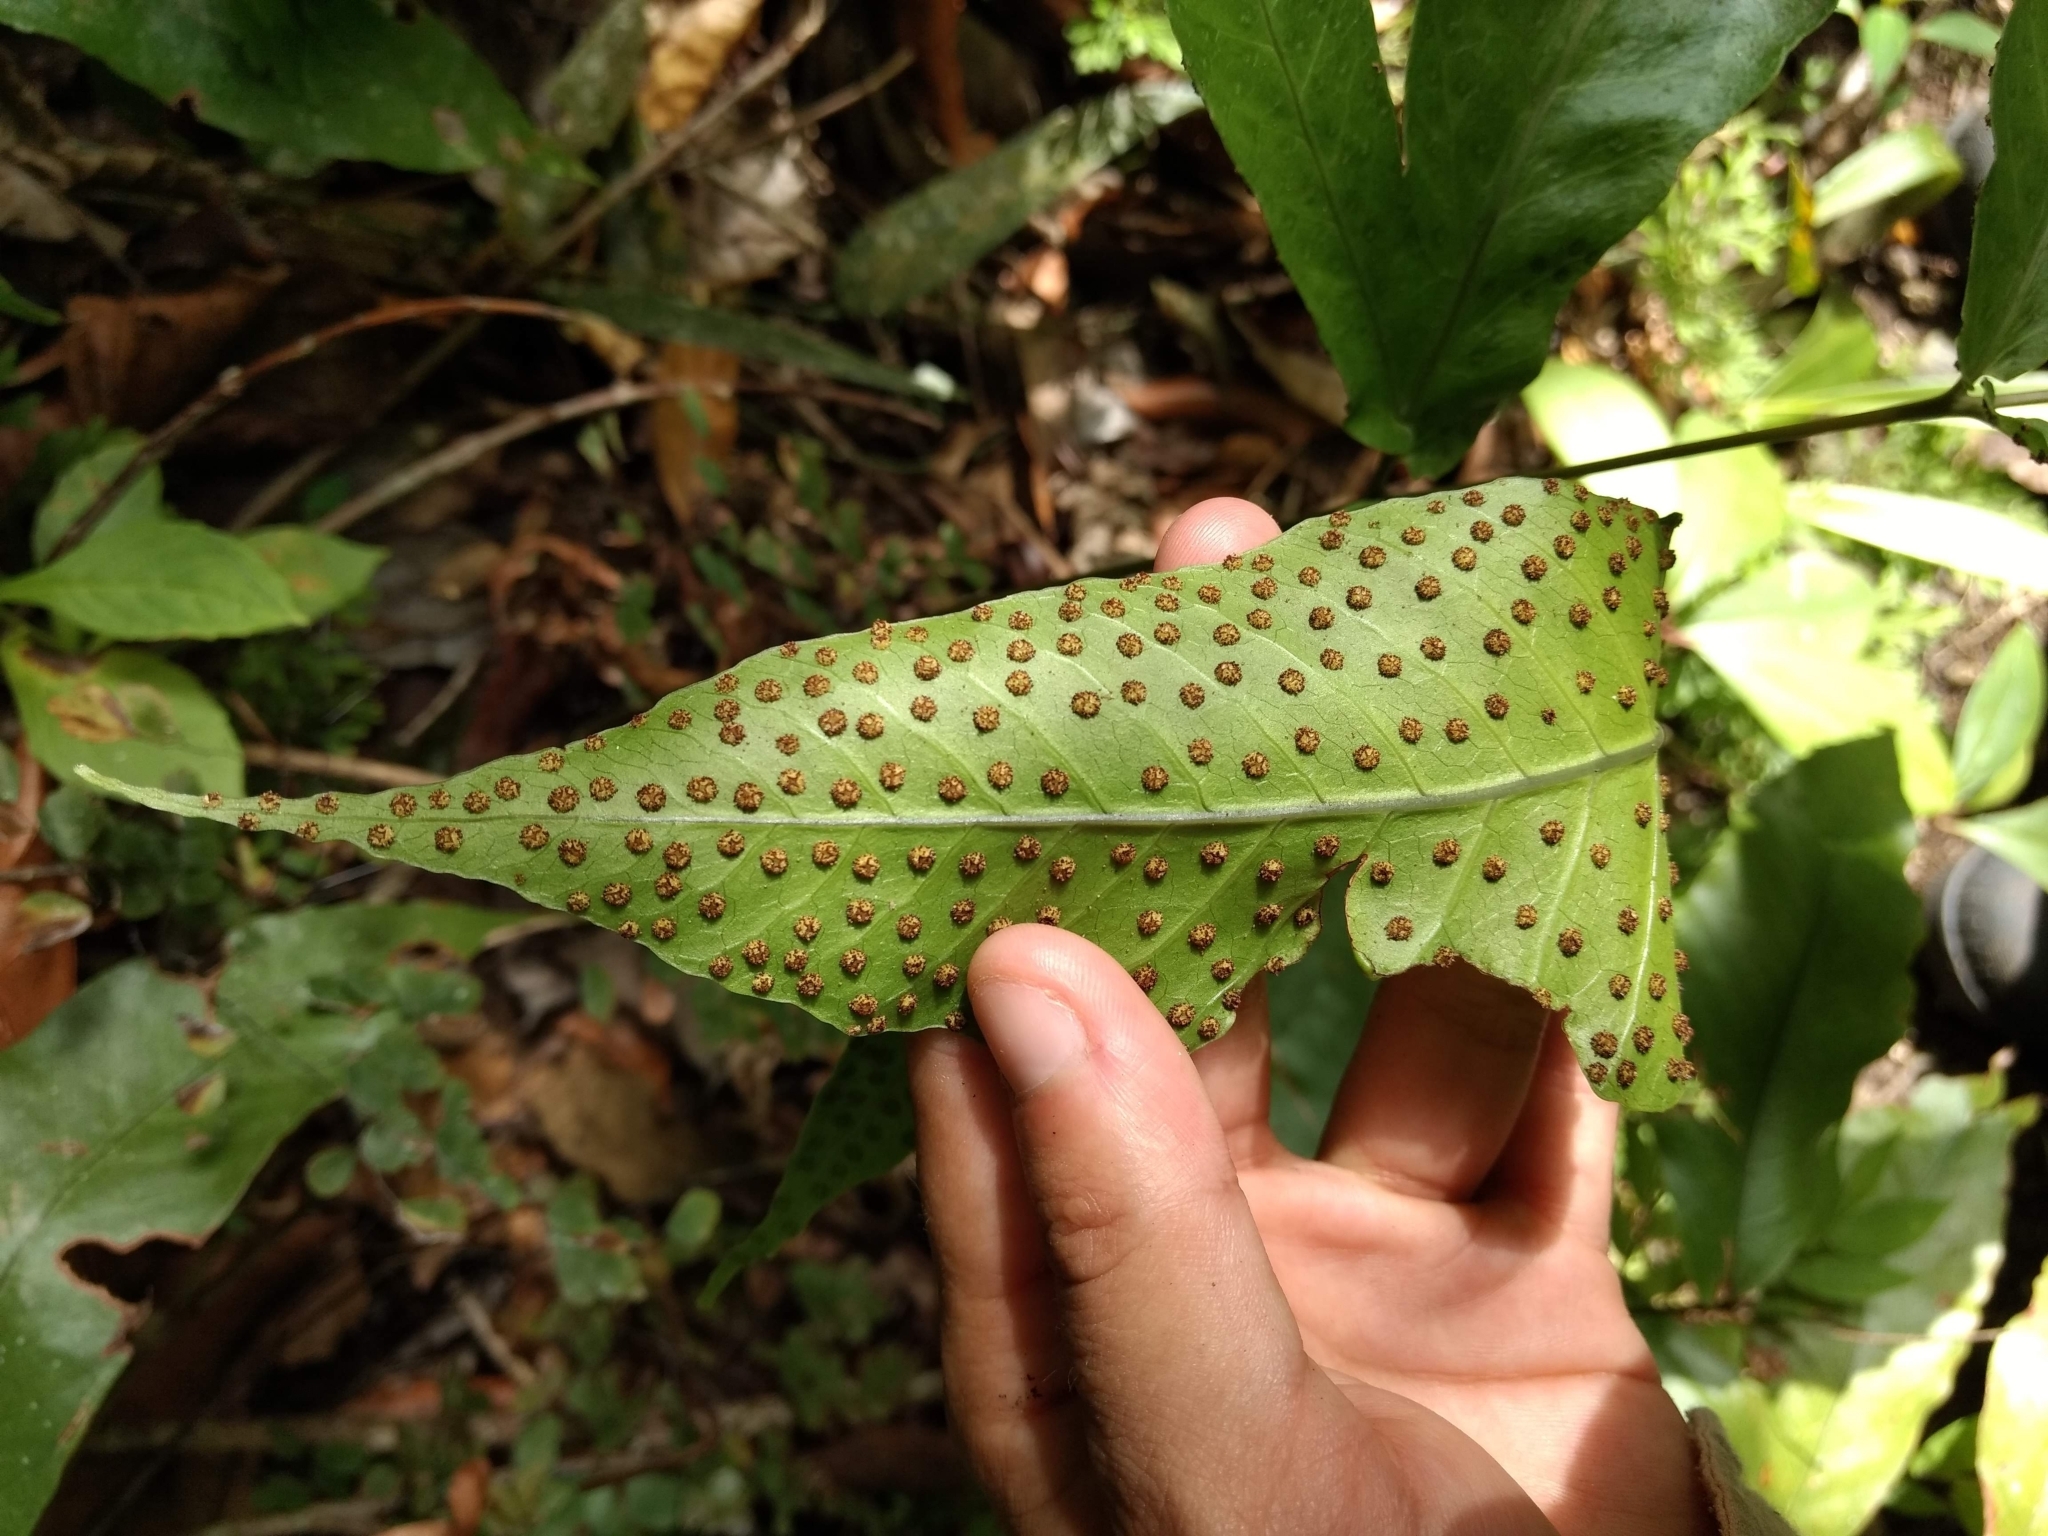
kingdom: Plantae
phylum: Tracheophyta
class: Polypodiopsida
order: Polypodiales
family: Tectariaceae
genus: Tectaria
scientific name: Tectaria incisa
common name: Incised halberd fern
